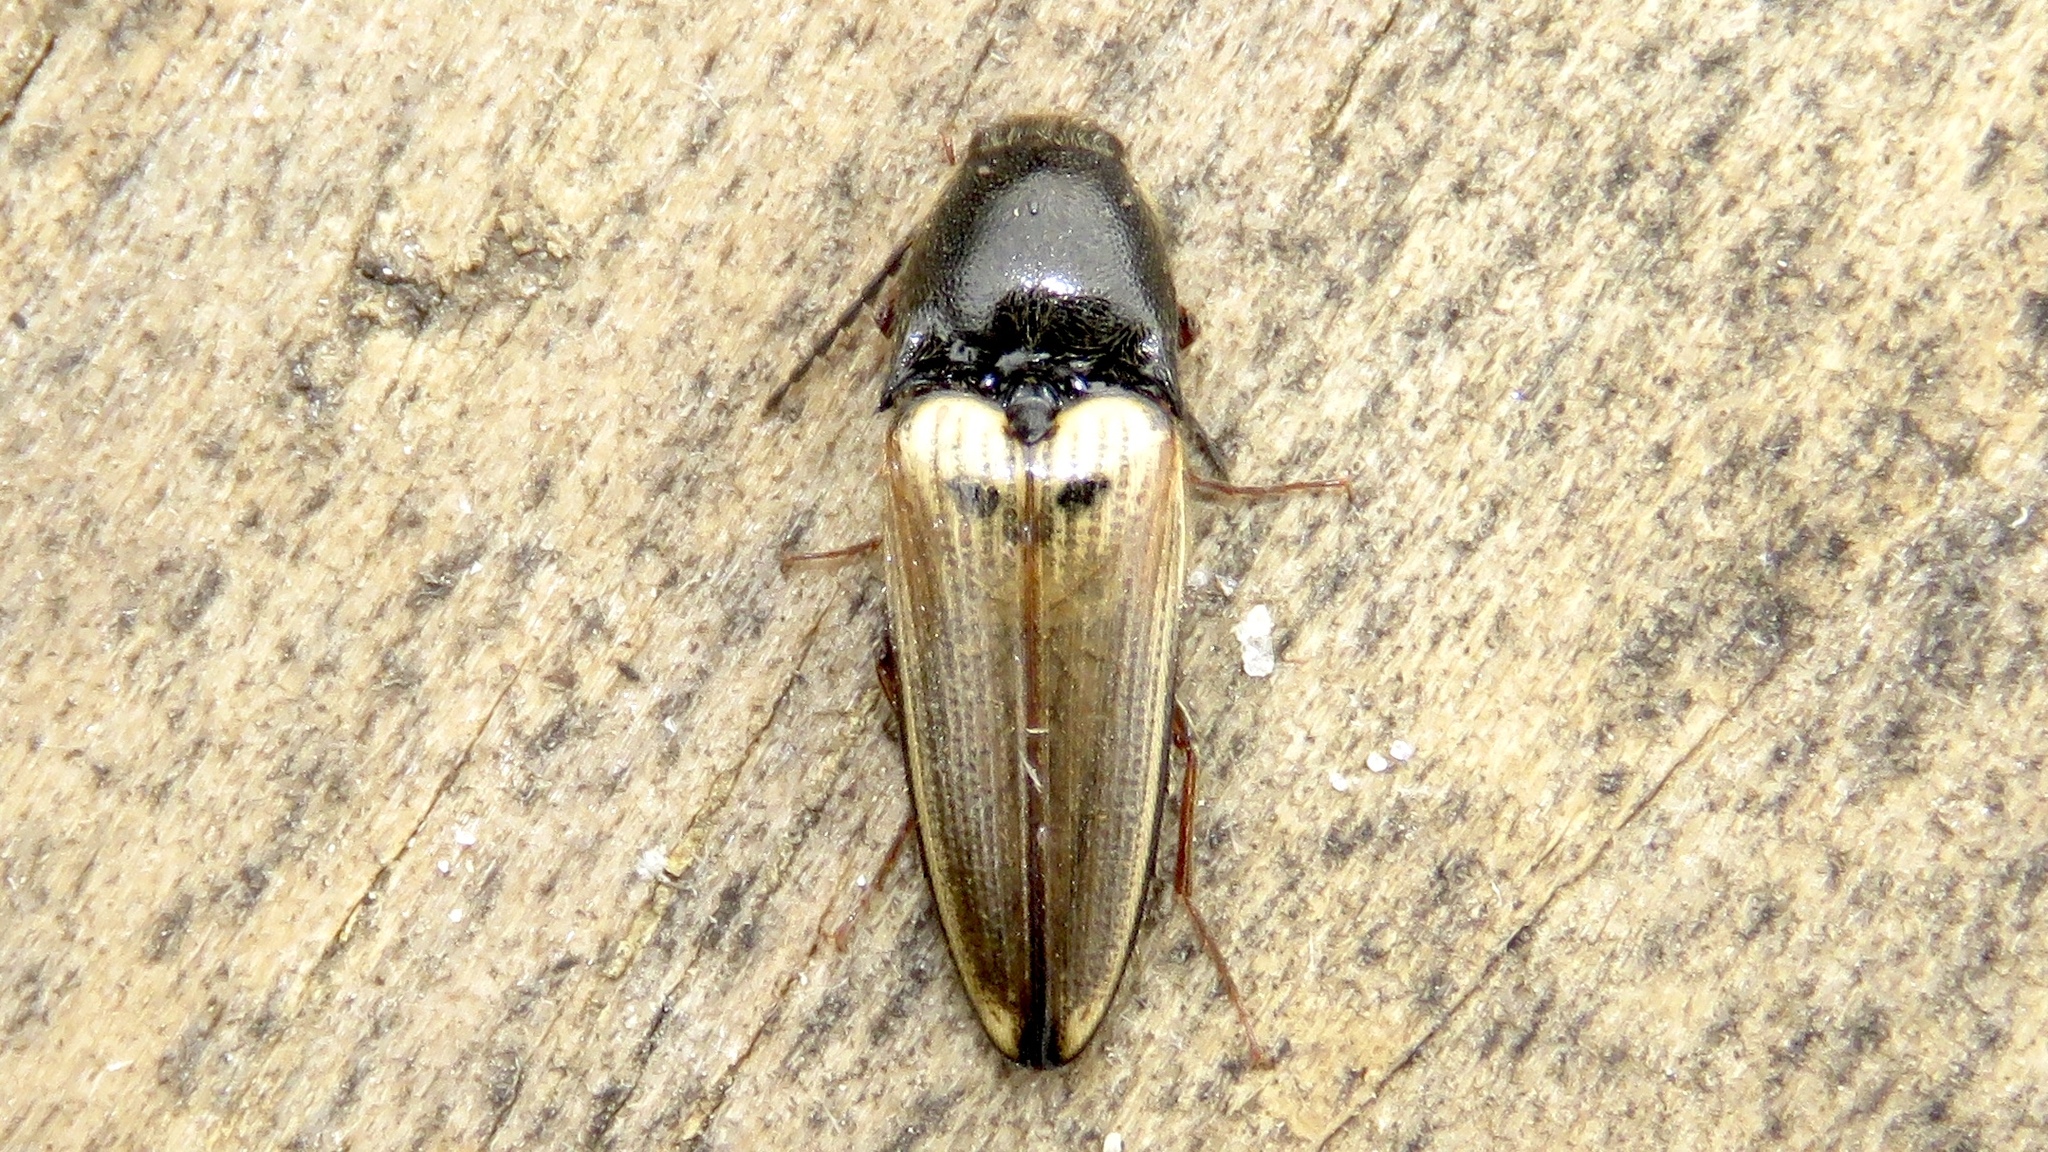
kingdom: Animalia
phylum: Arthropoda
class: Insecta
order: Coleoptera
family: Elateridae
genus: Ampedus
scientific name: Ampedus nigricollis
